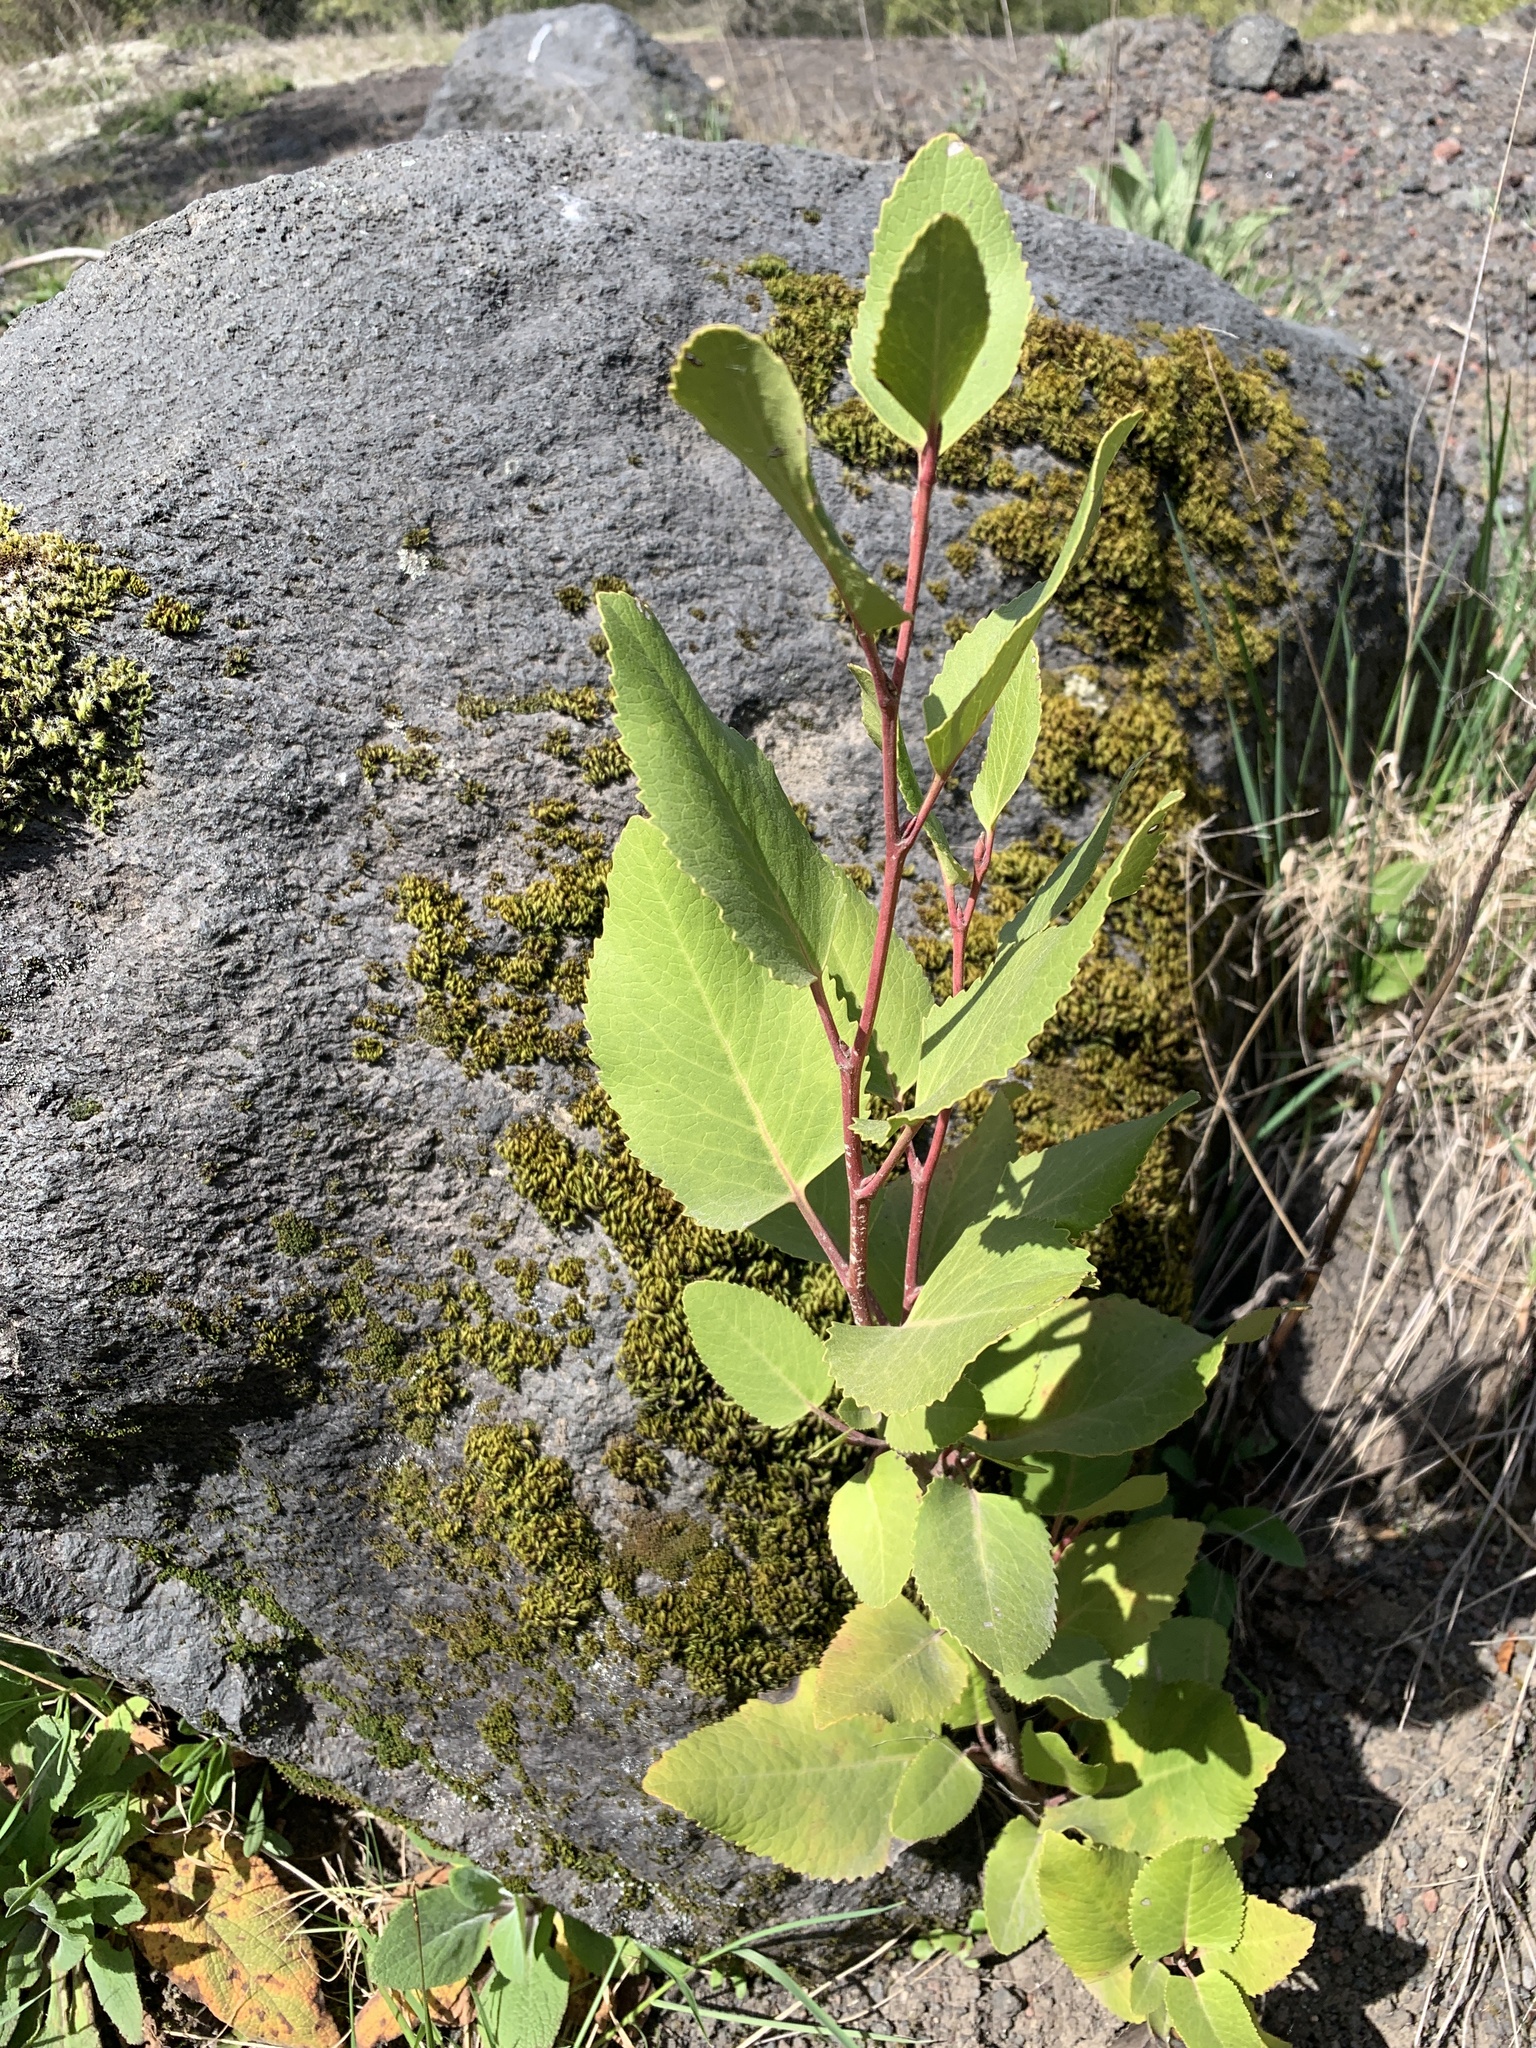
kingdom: Plantae
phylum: Tracheophyta
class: Magnoliopsida
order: Proteales
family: Proteaceae
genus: Lomatia
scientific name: Lomatia hirsuta
